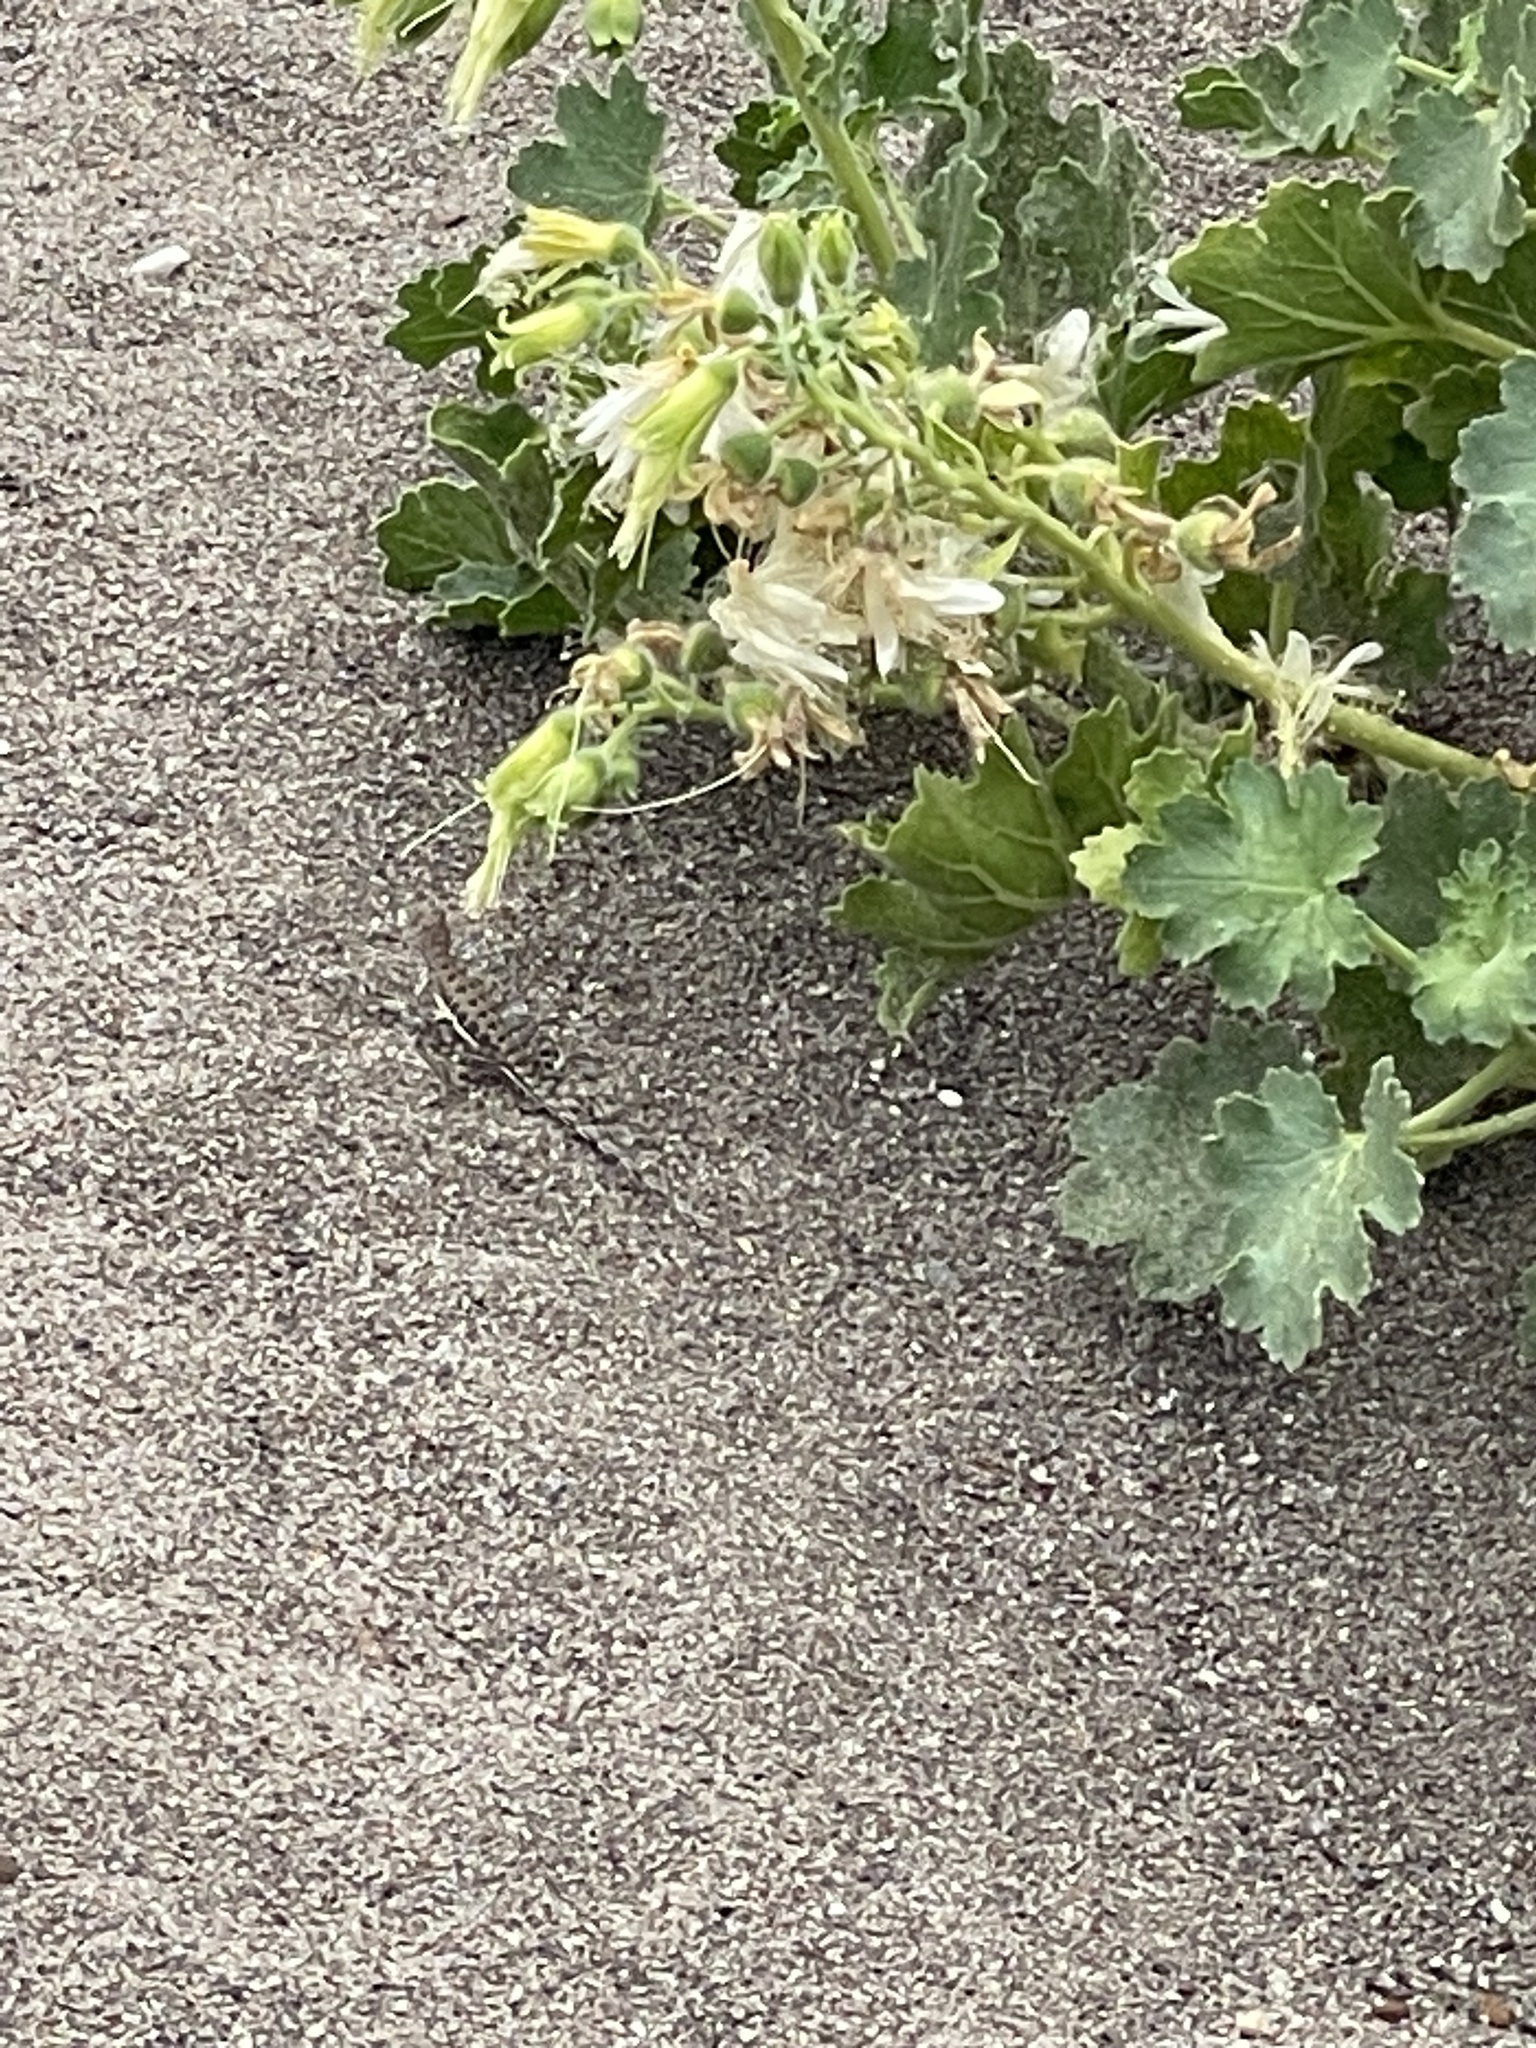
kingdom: Plantae
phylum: Tracheophyta
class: Magnoliopsida
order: Cornales
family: Loasaceae
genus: Eucnide
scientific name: Eucnide cordata
